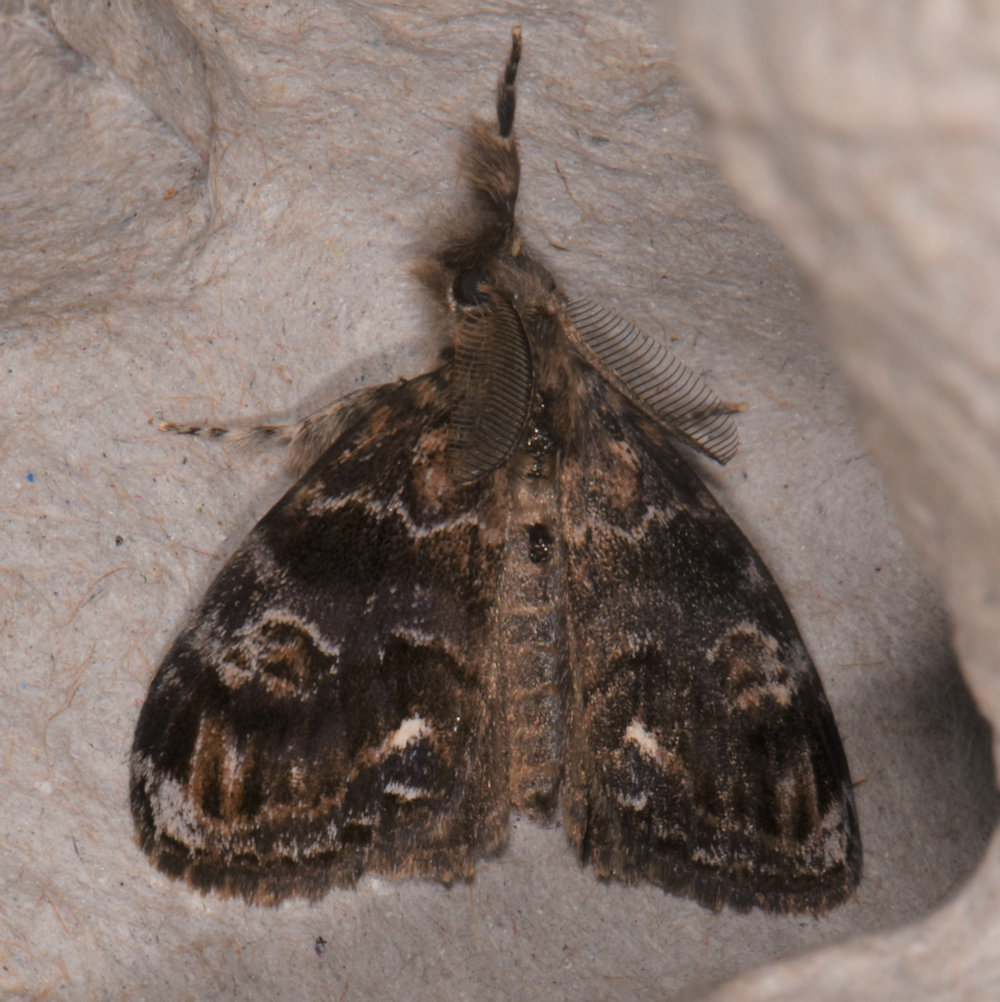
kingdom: Animalia
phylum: Arthropoda
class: Insecta
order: Lepidoptera
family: Erebidae
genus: Orgyia
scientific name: Orgyia definita
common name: Definite tussock moth
